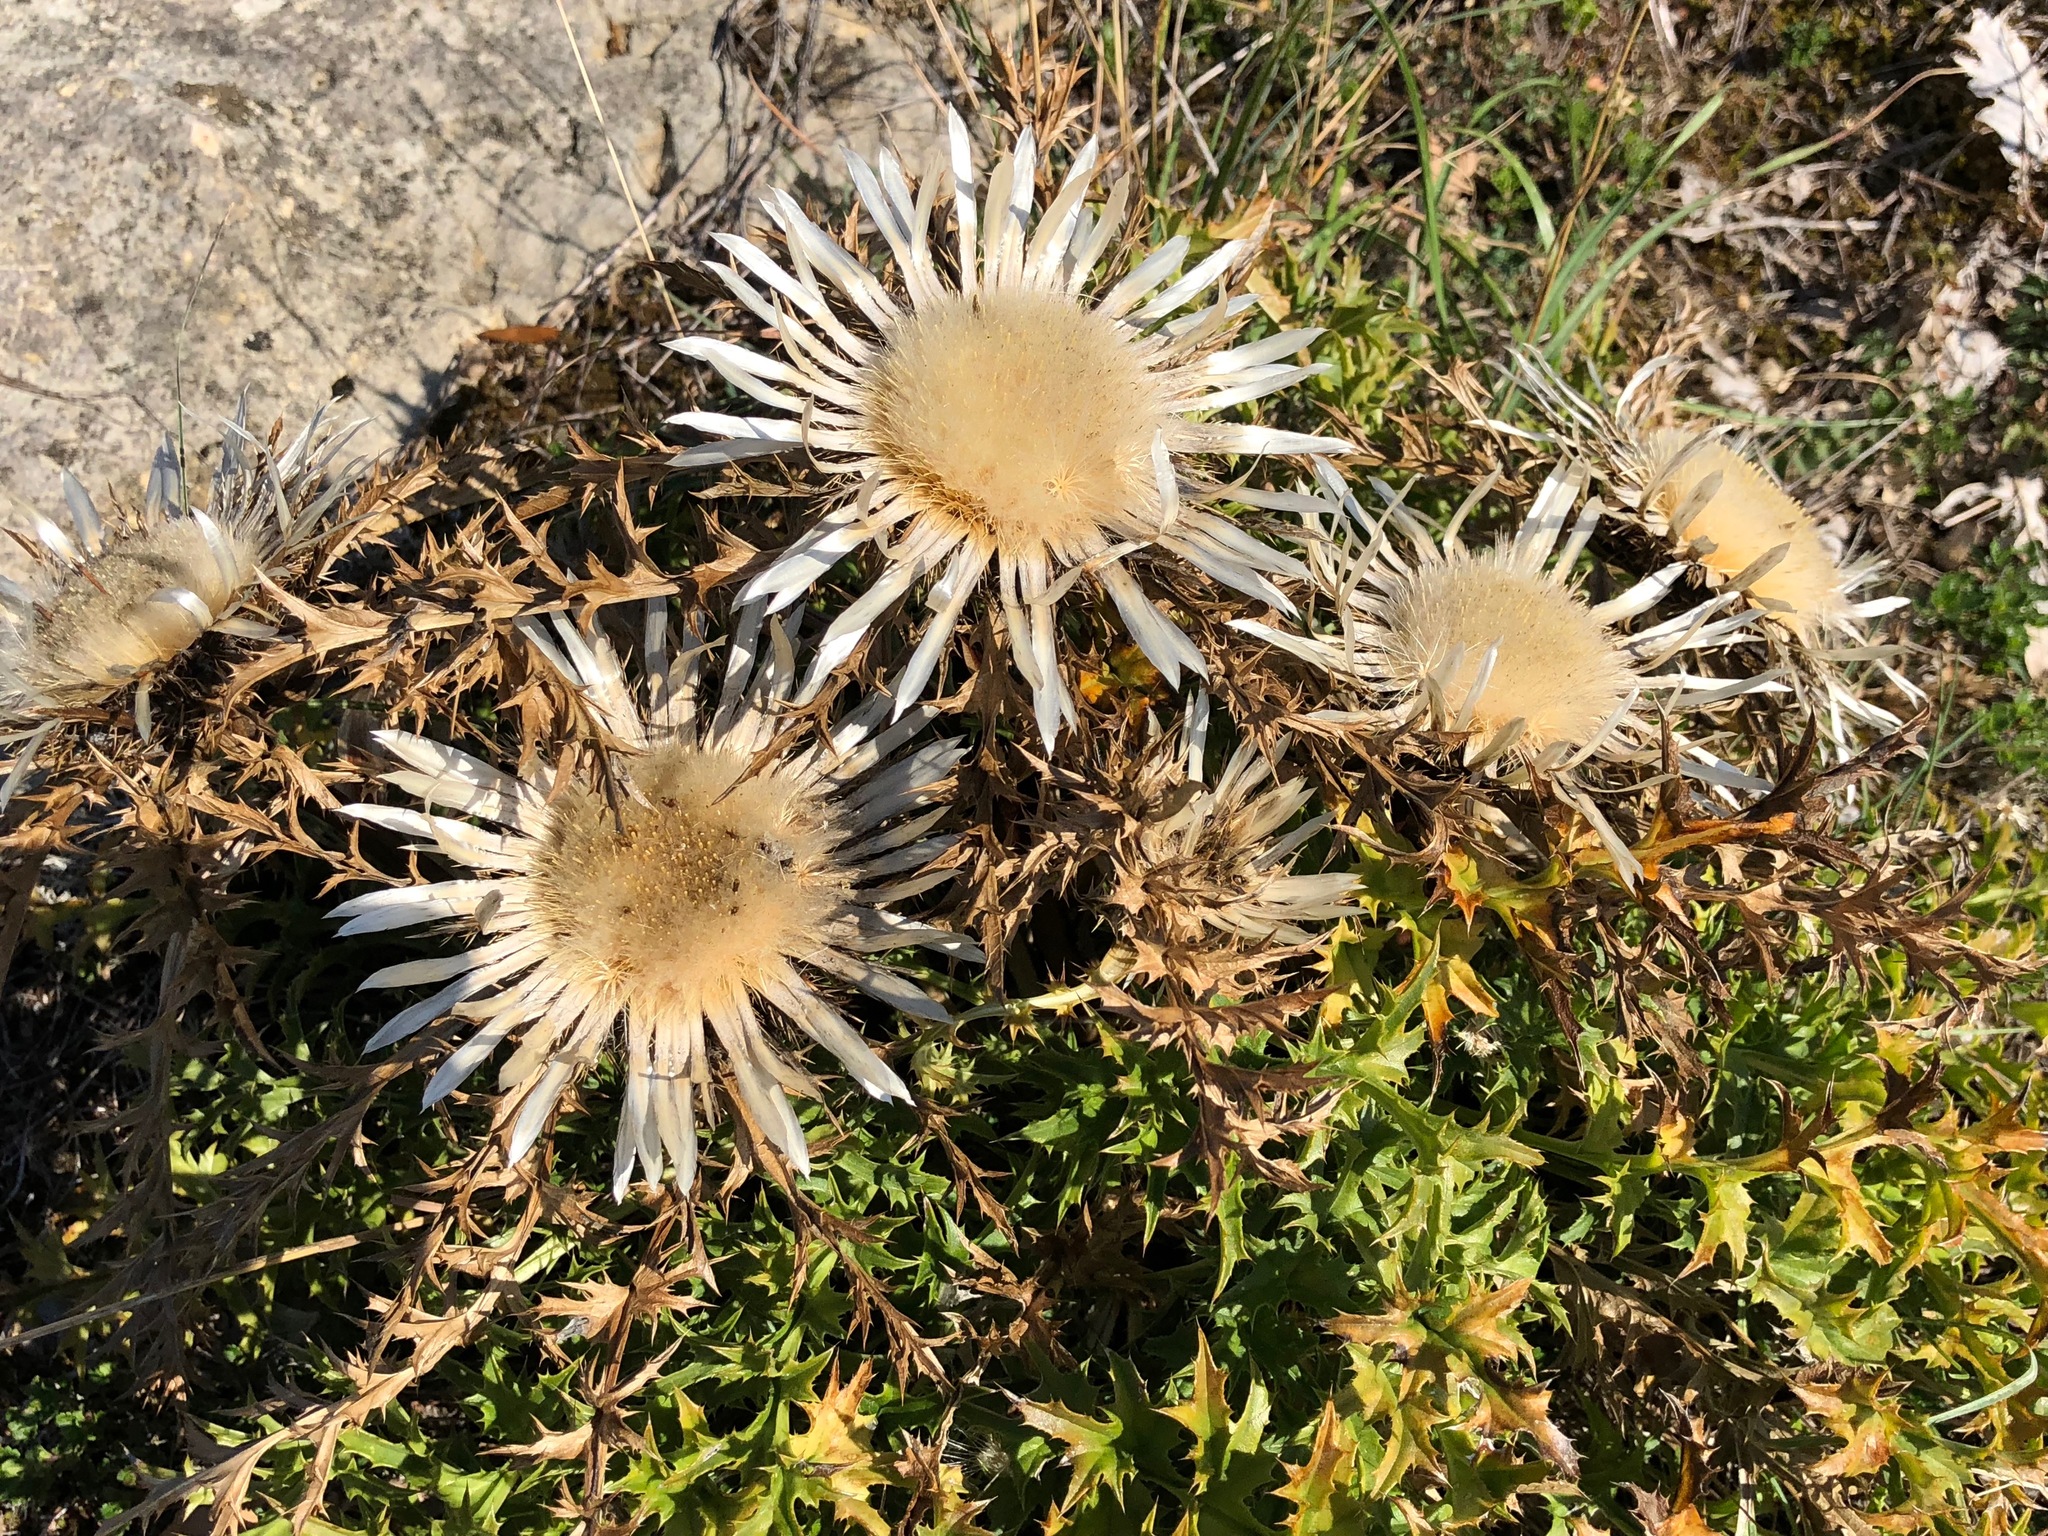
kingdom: Plantae
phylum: Tracheophyta
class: Magnoliopsida
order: Asterales
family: Asteraceae
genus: Carlina
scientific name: Carlina acaulis
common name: Stemless carline thistle
